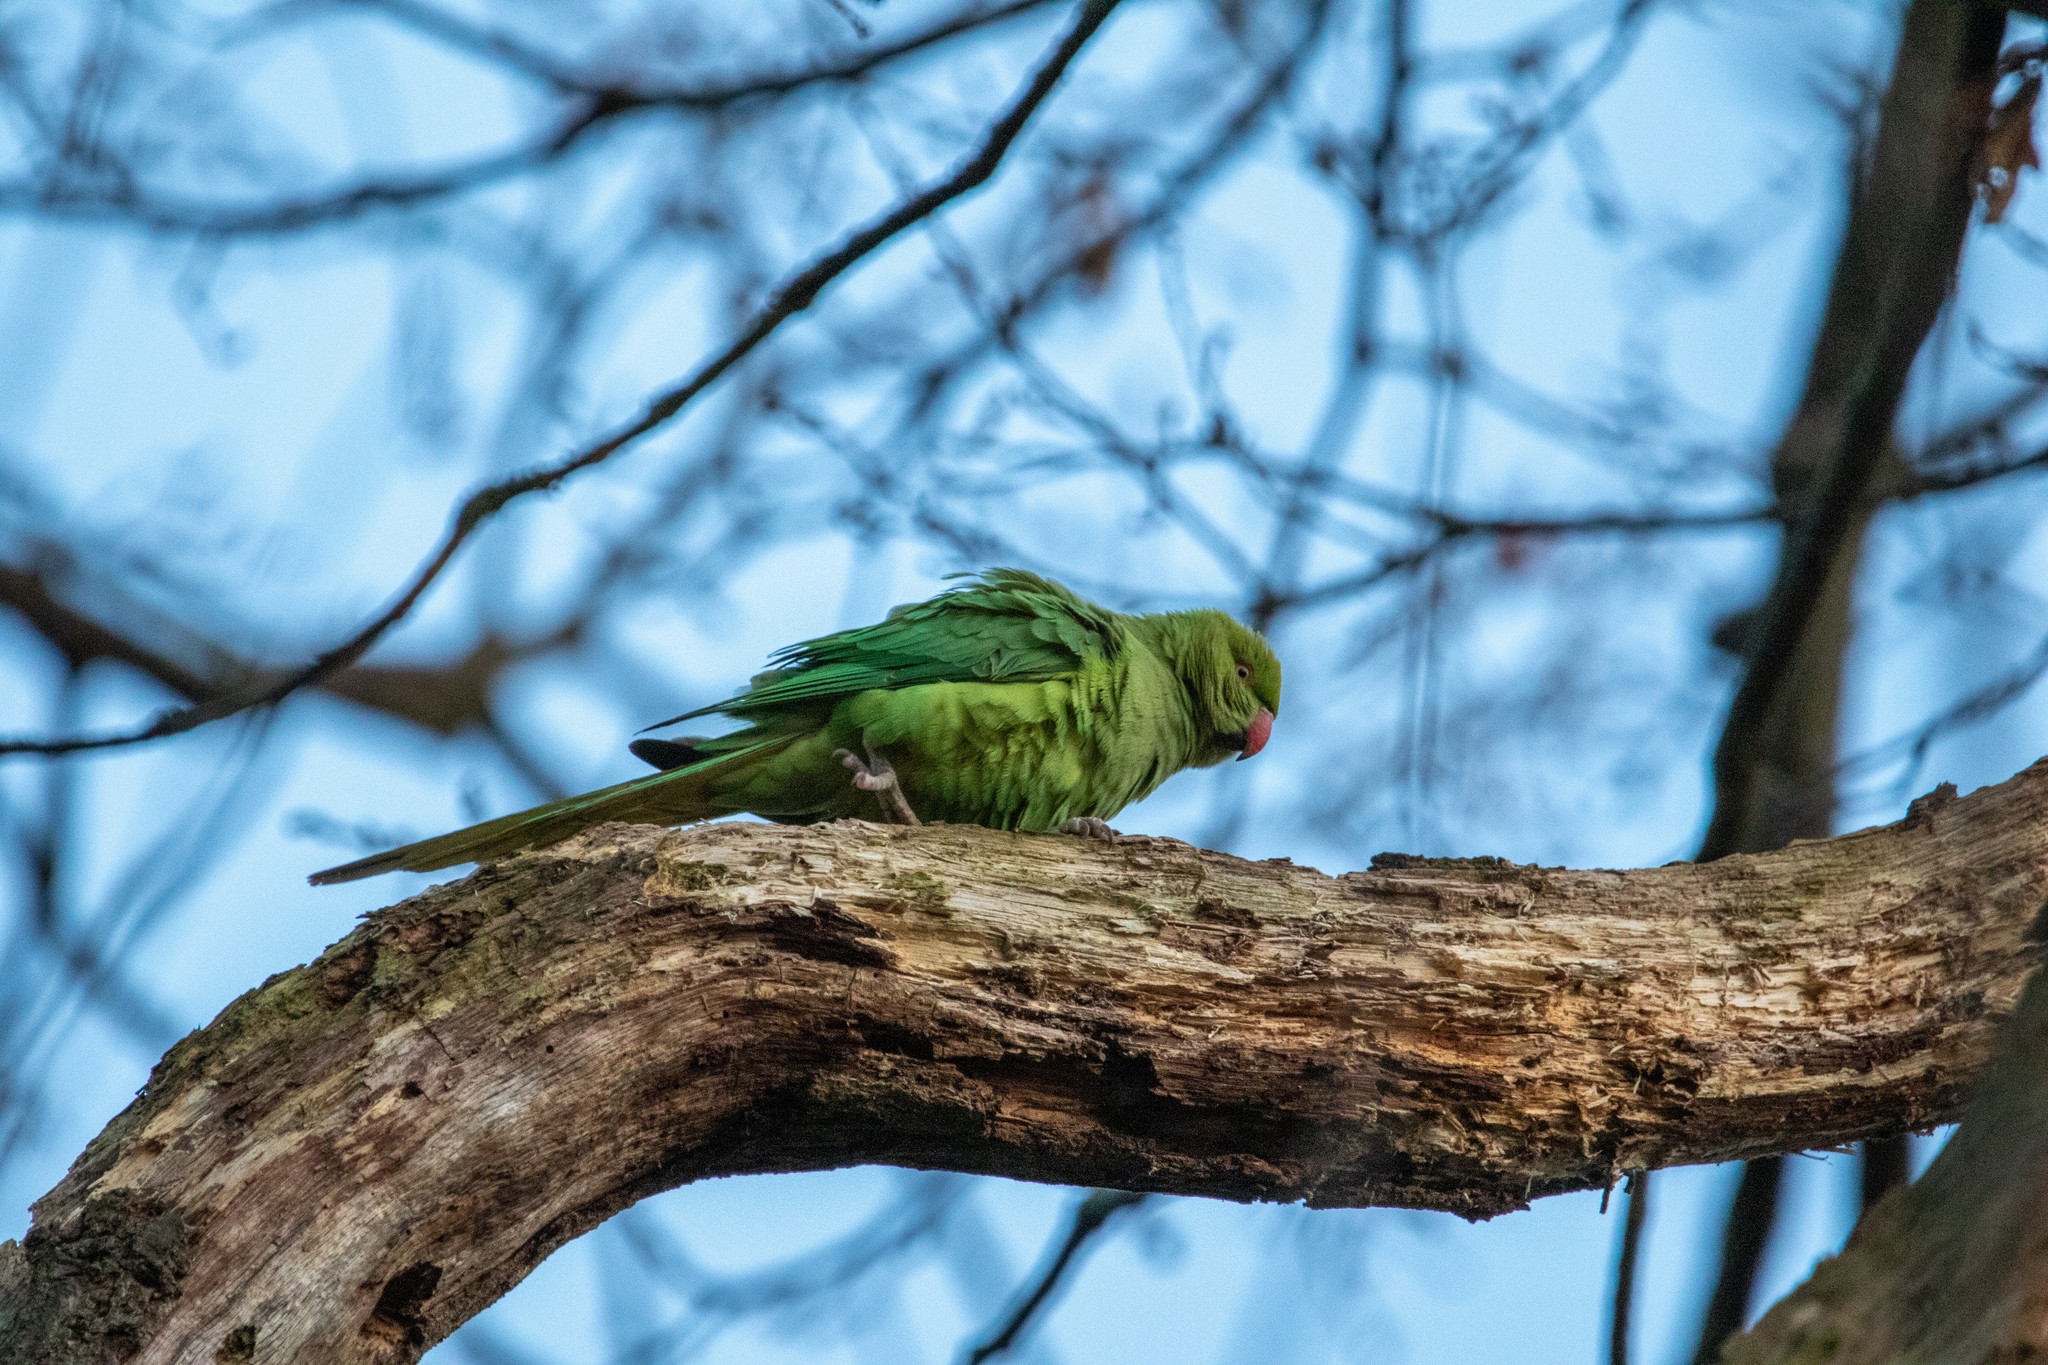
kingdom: Animalia
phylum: Chordata
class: Aves
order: Psittaciformes
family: Psittacidae
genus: Psittacula
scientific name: Psittacula krameri
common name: Rose-ringed parakeet
